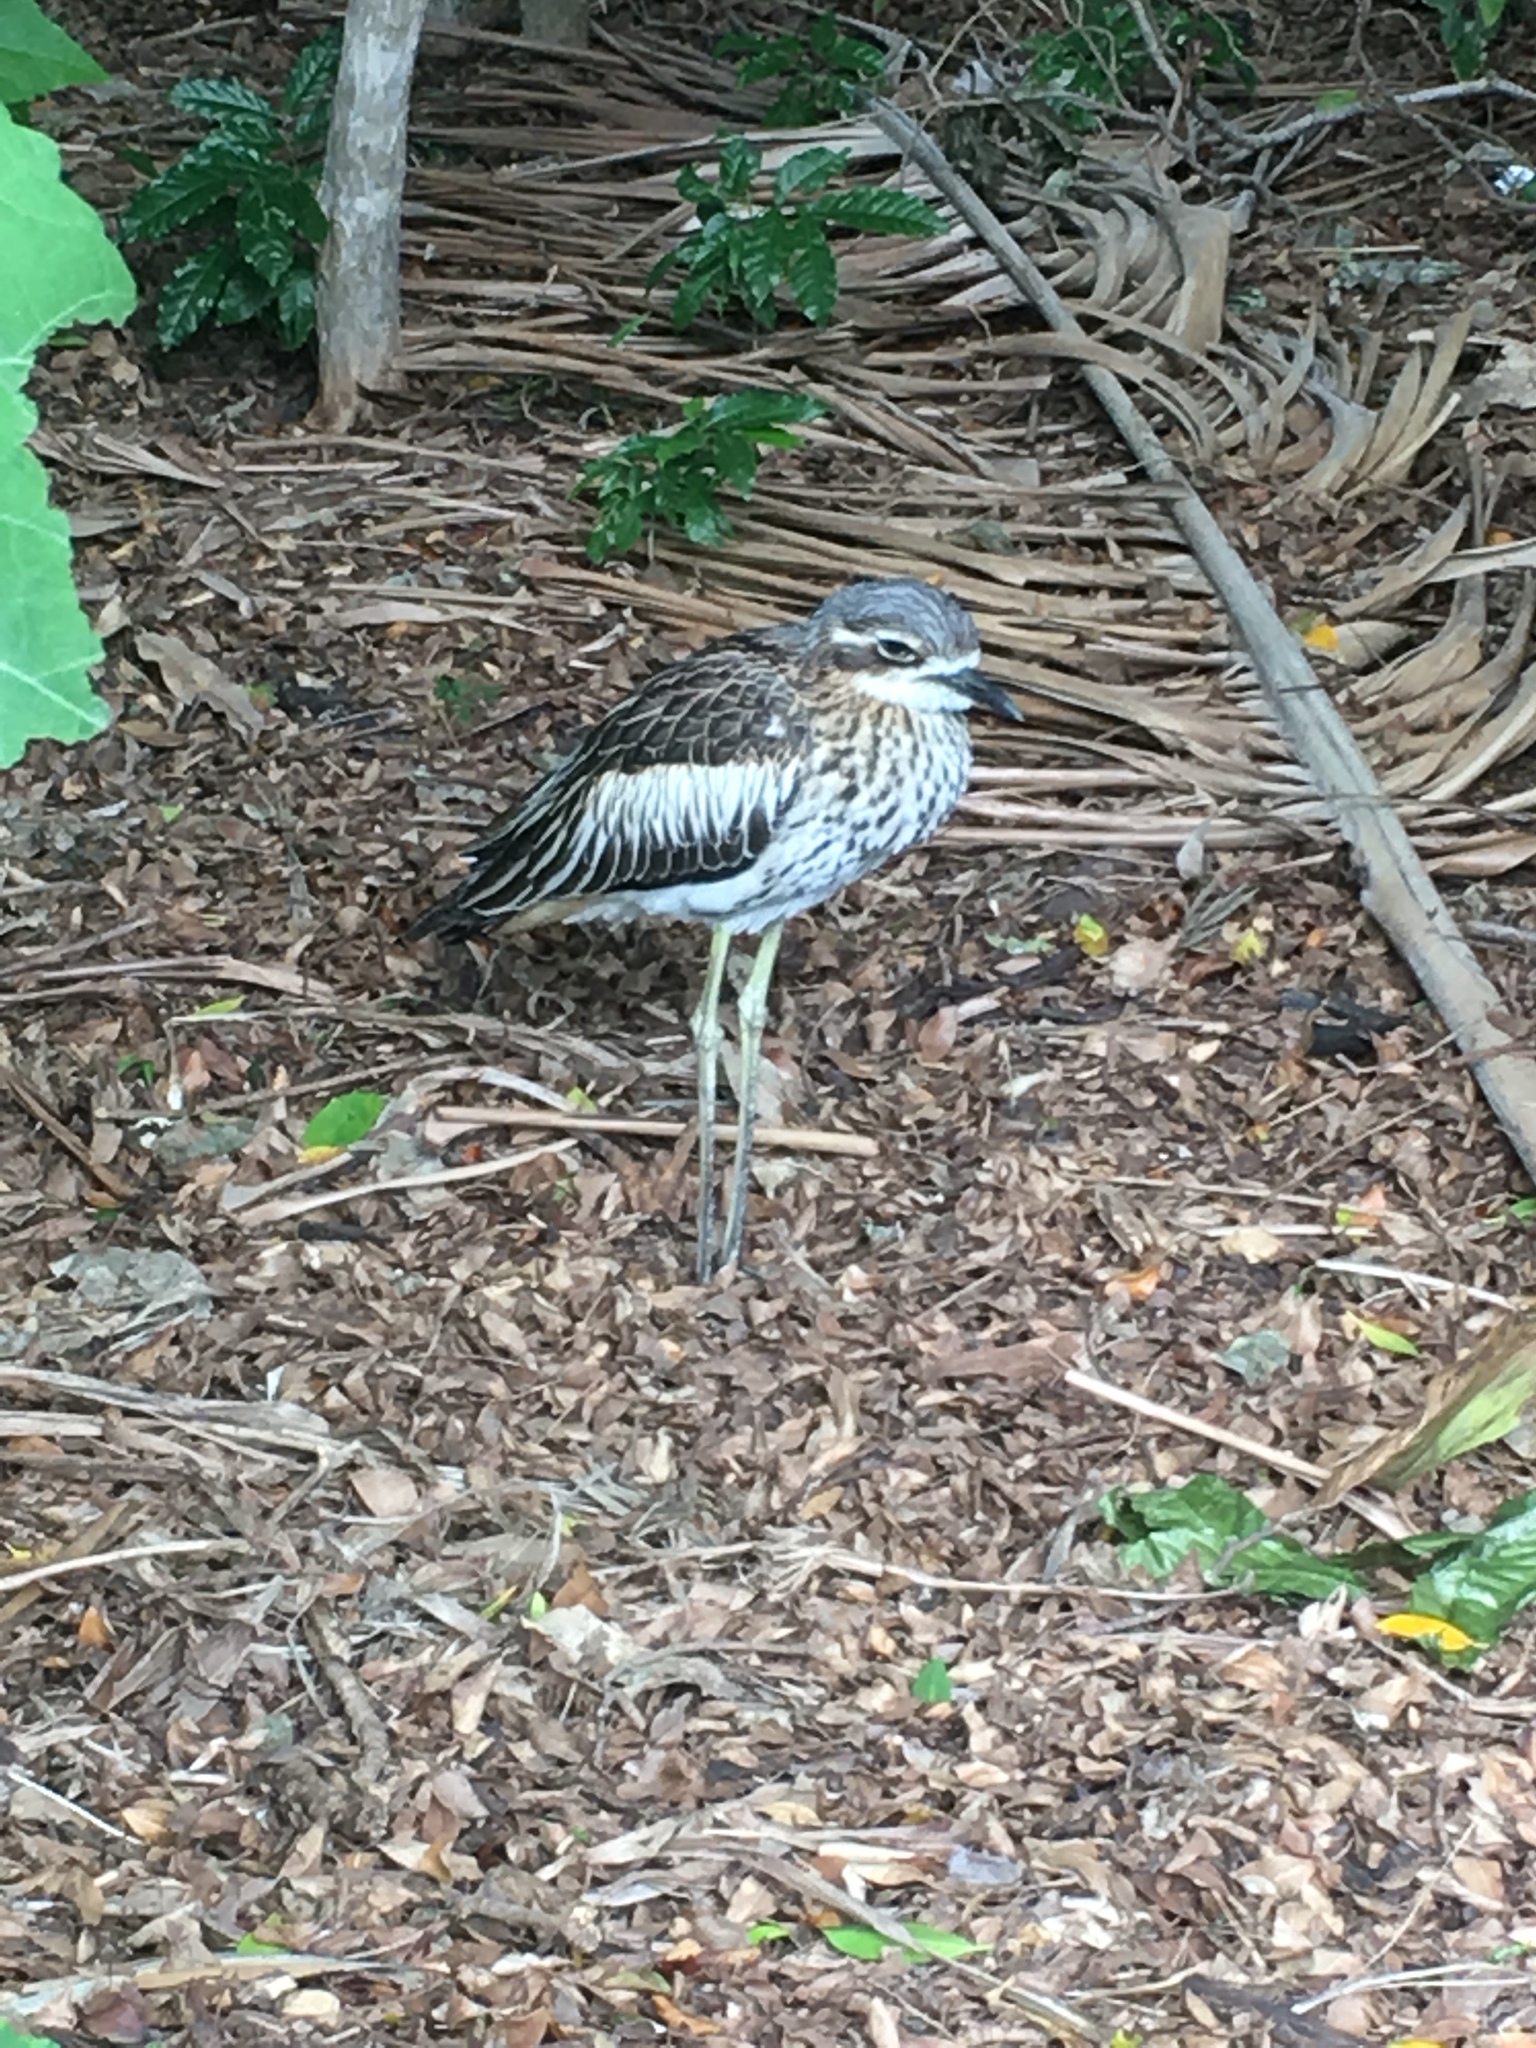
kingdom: Animalia
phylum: Chordata
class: Aves
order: Charadriiformes
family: Burhinidae
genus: Burhinus
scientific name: Burhinus grallarius
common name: Bush stone-curlew
